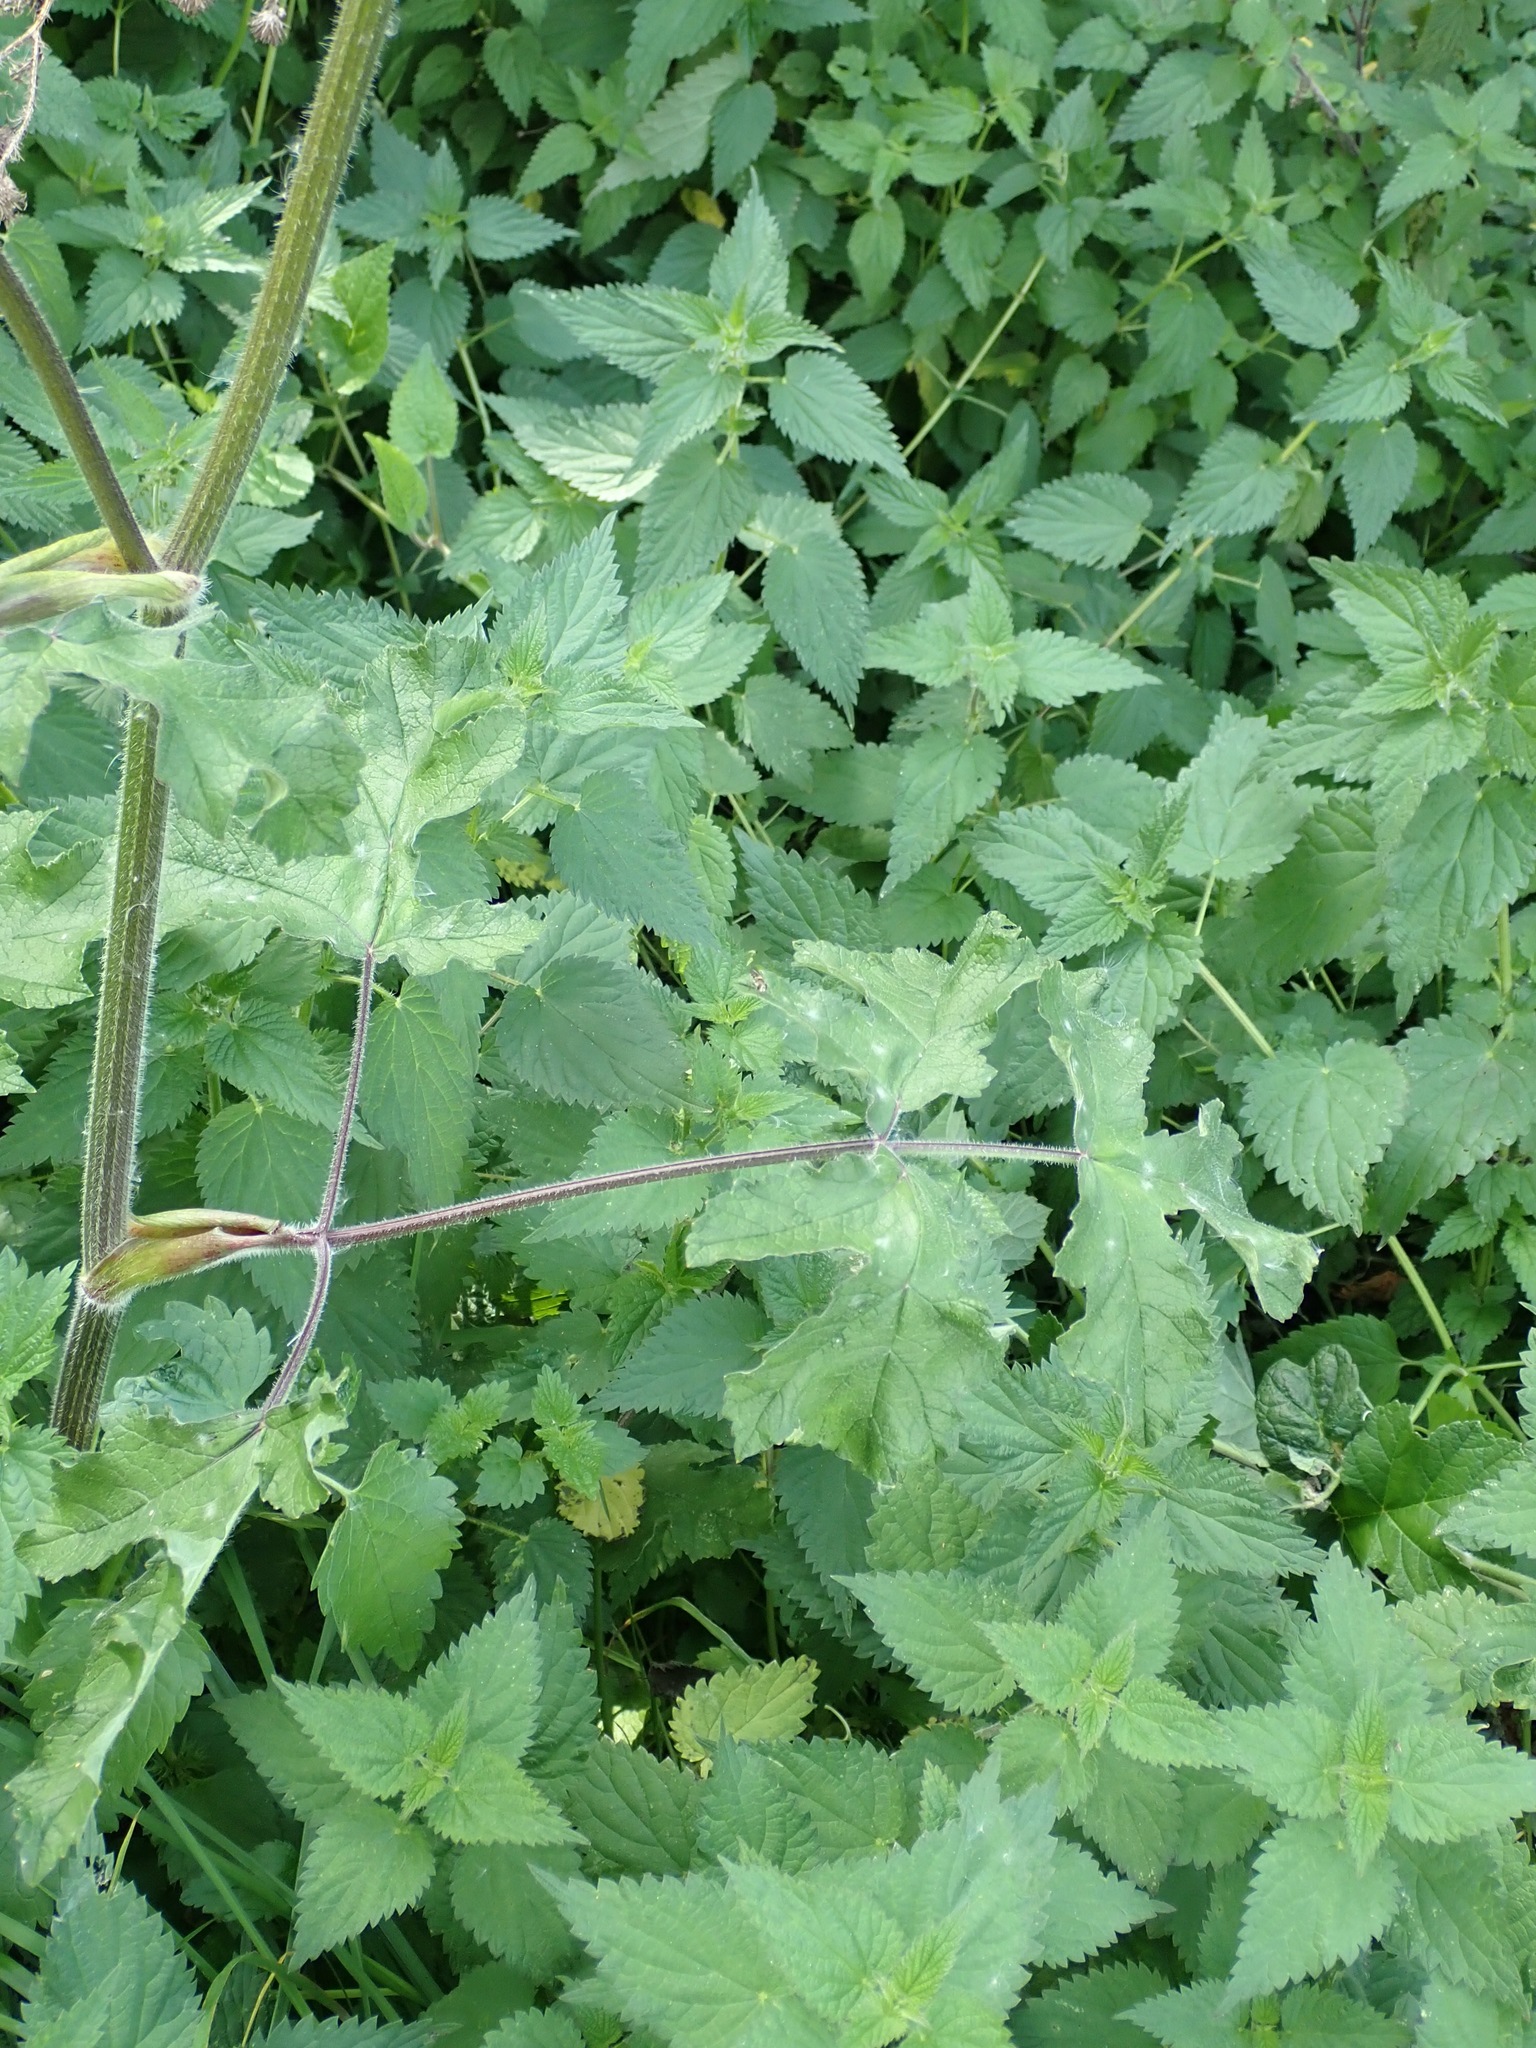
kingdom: Plantae
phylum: Tracheophyta
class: Magnoliopsida
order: Apiales
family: Apiaceae
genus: Heracleum
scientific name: Heracleum sphondylium
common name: Hogweed
